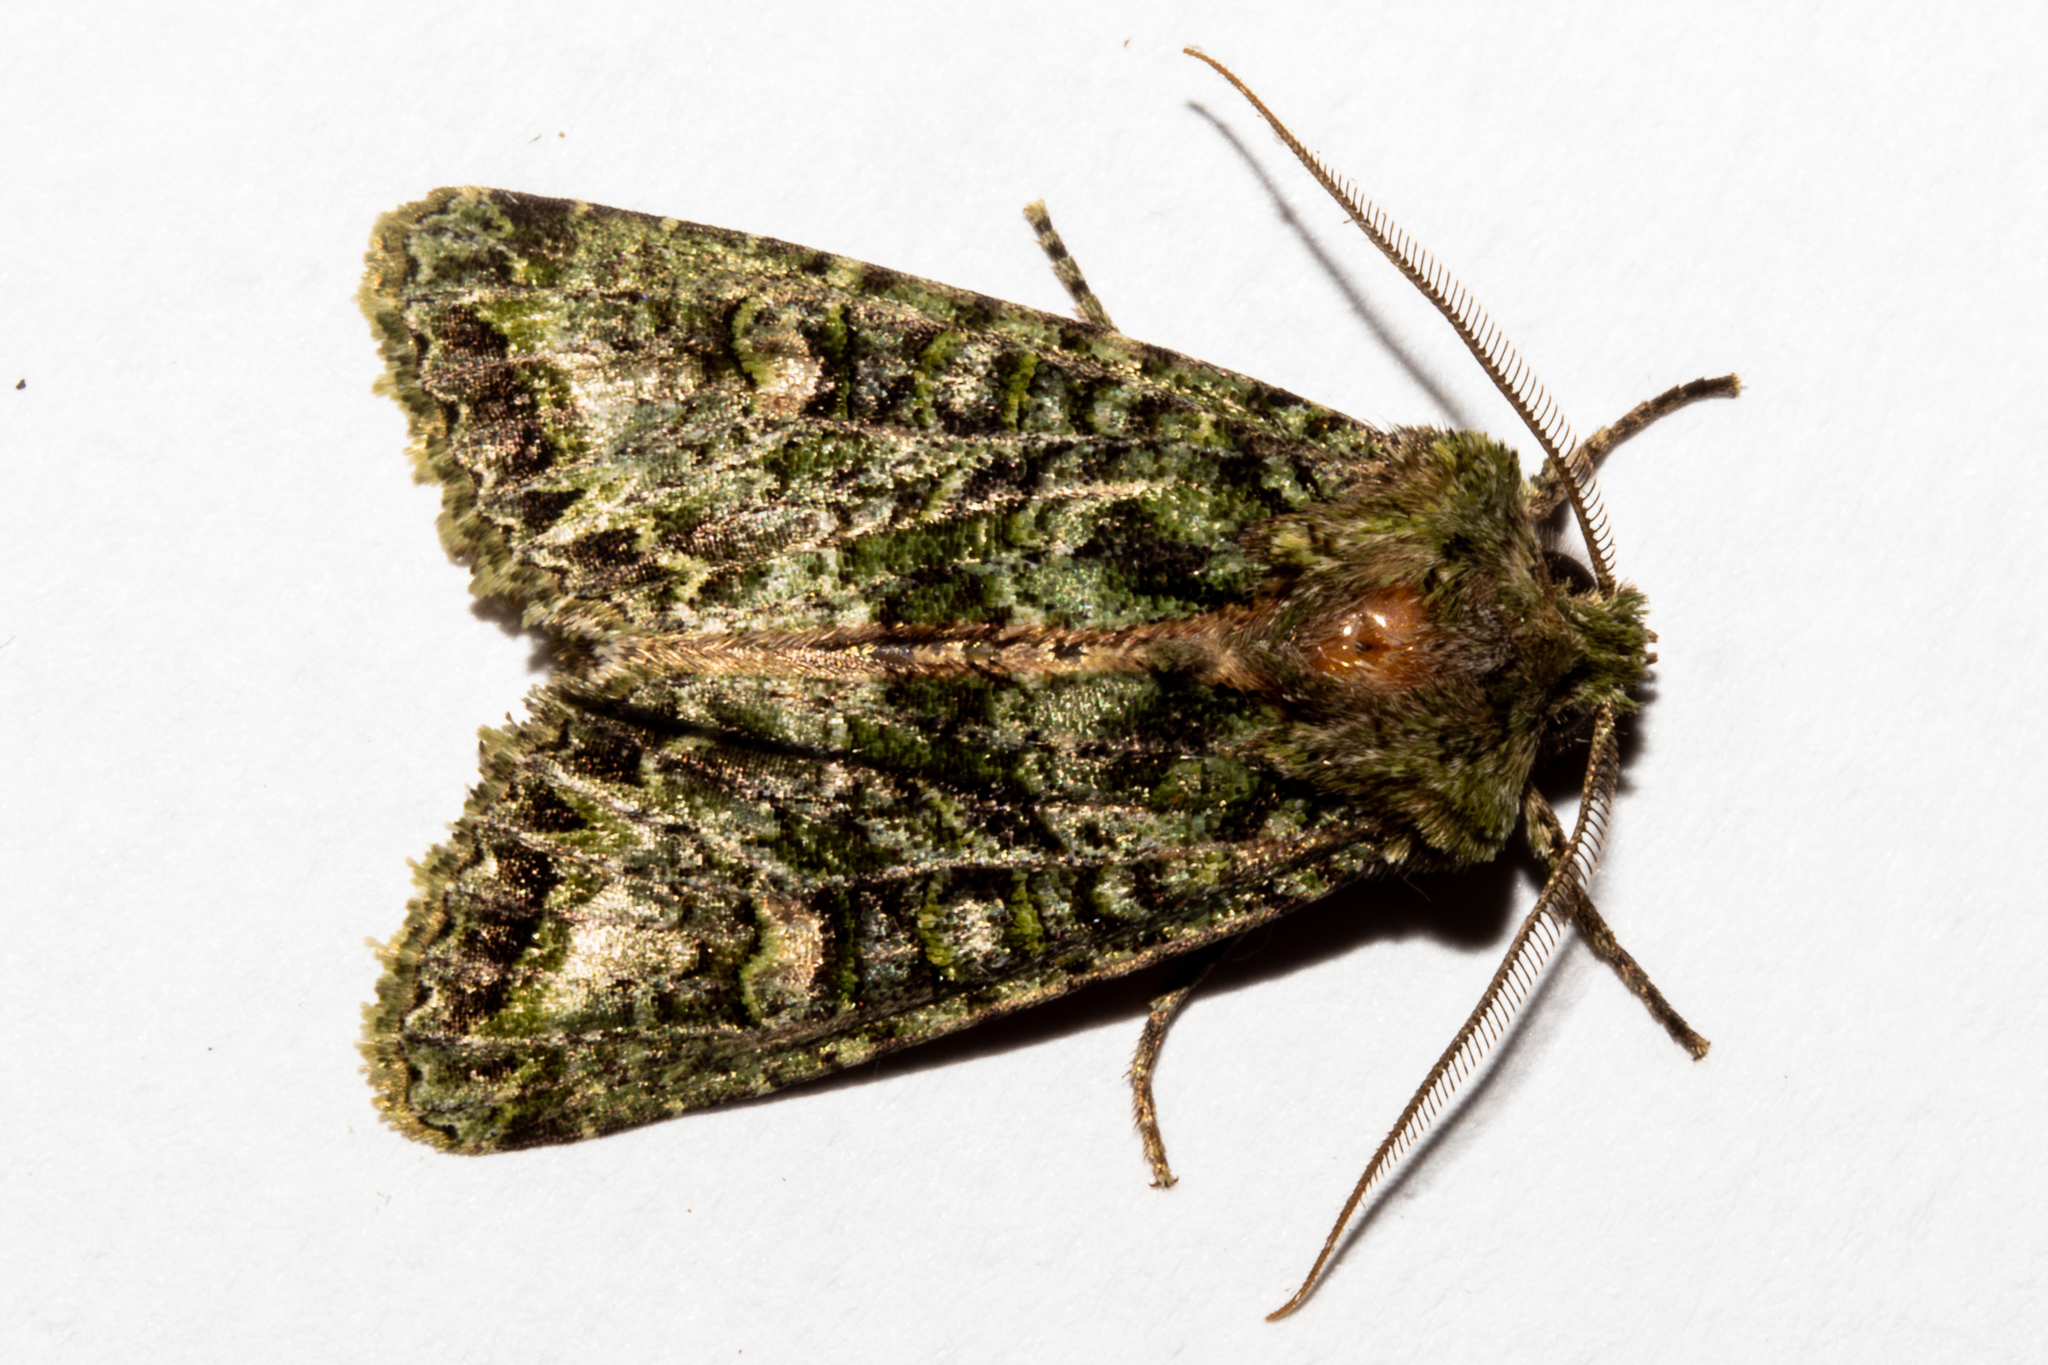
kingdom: Animalia
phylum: Arthropoda
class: Insecta
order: Lepidoptera
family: Noctuidae
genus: Ichneutica
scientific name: Ichneutica
